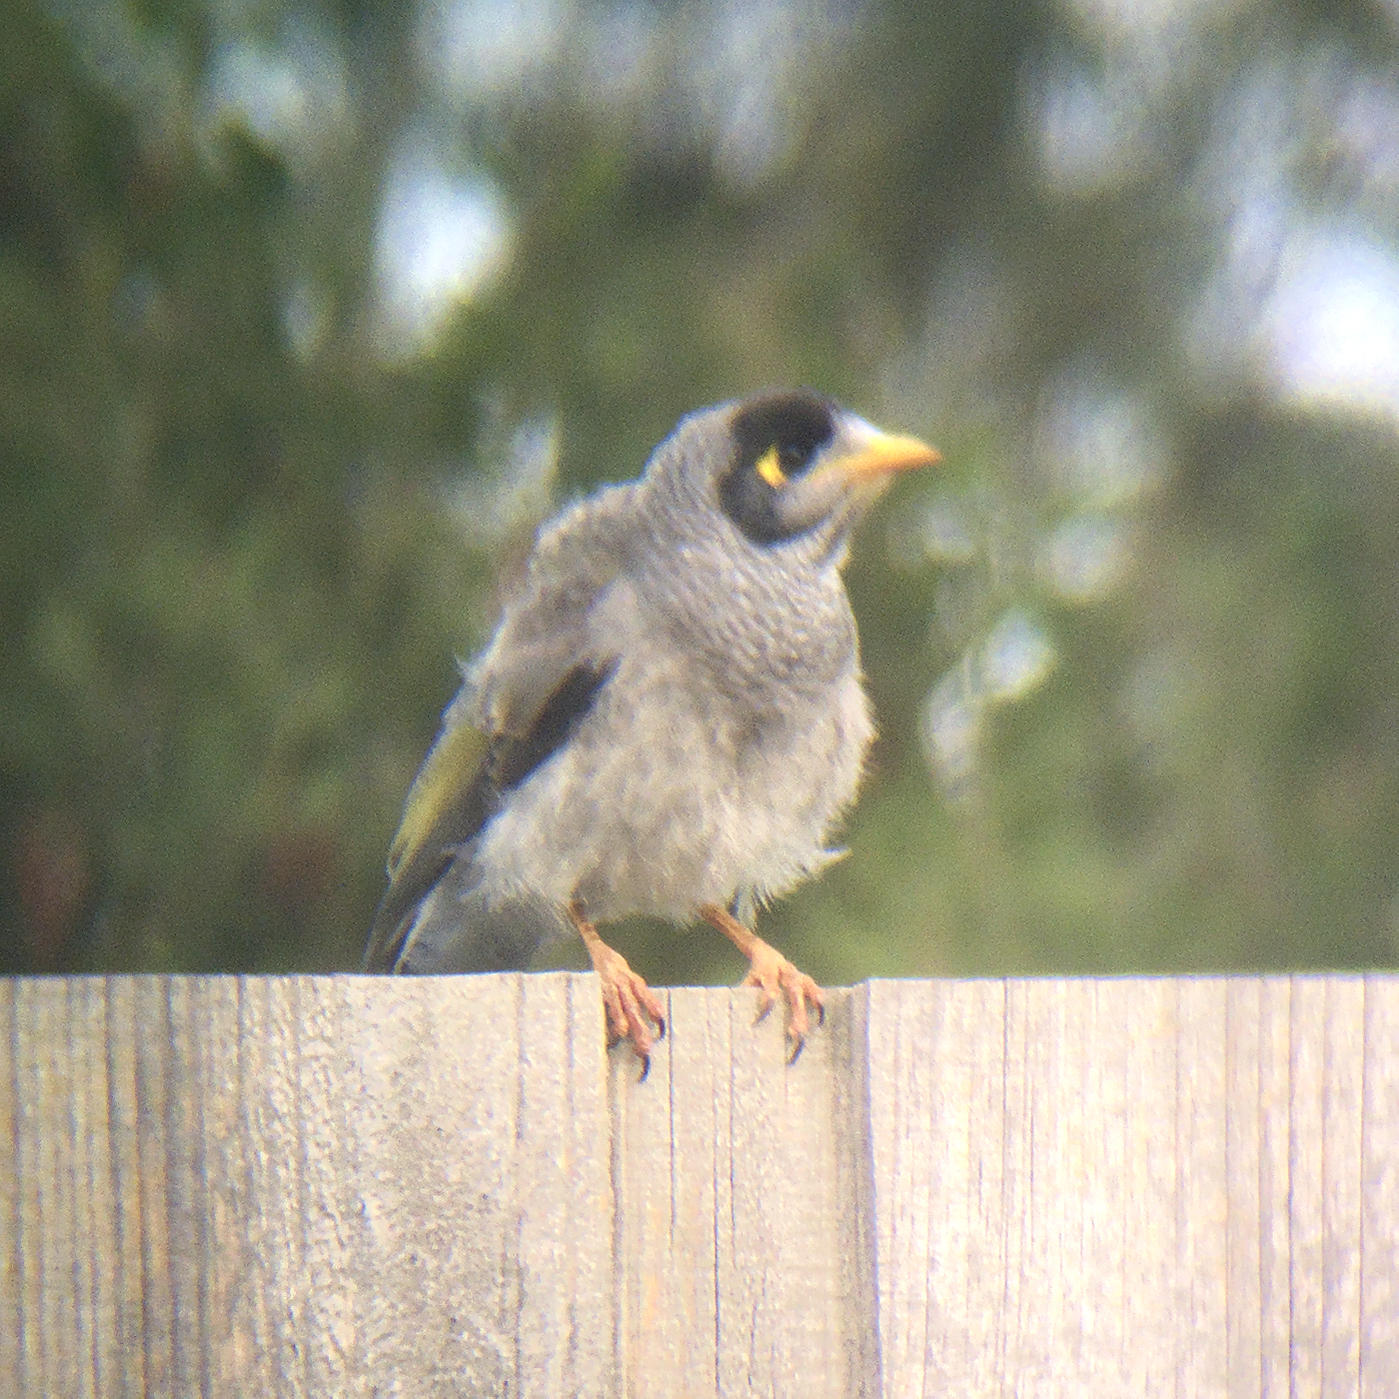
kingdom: Animalia
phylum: Chordata
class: Aves
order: Passeriformes
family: Meliphagidae
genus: Manorina
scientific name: Manorina melanocephala
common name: Noisy miner
